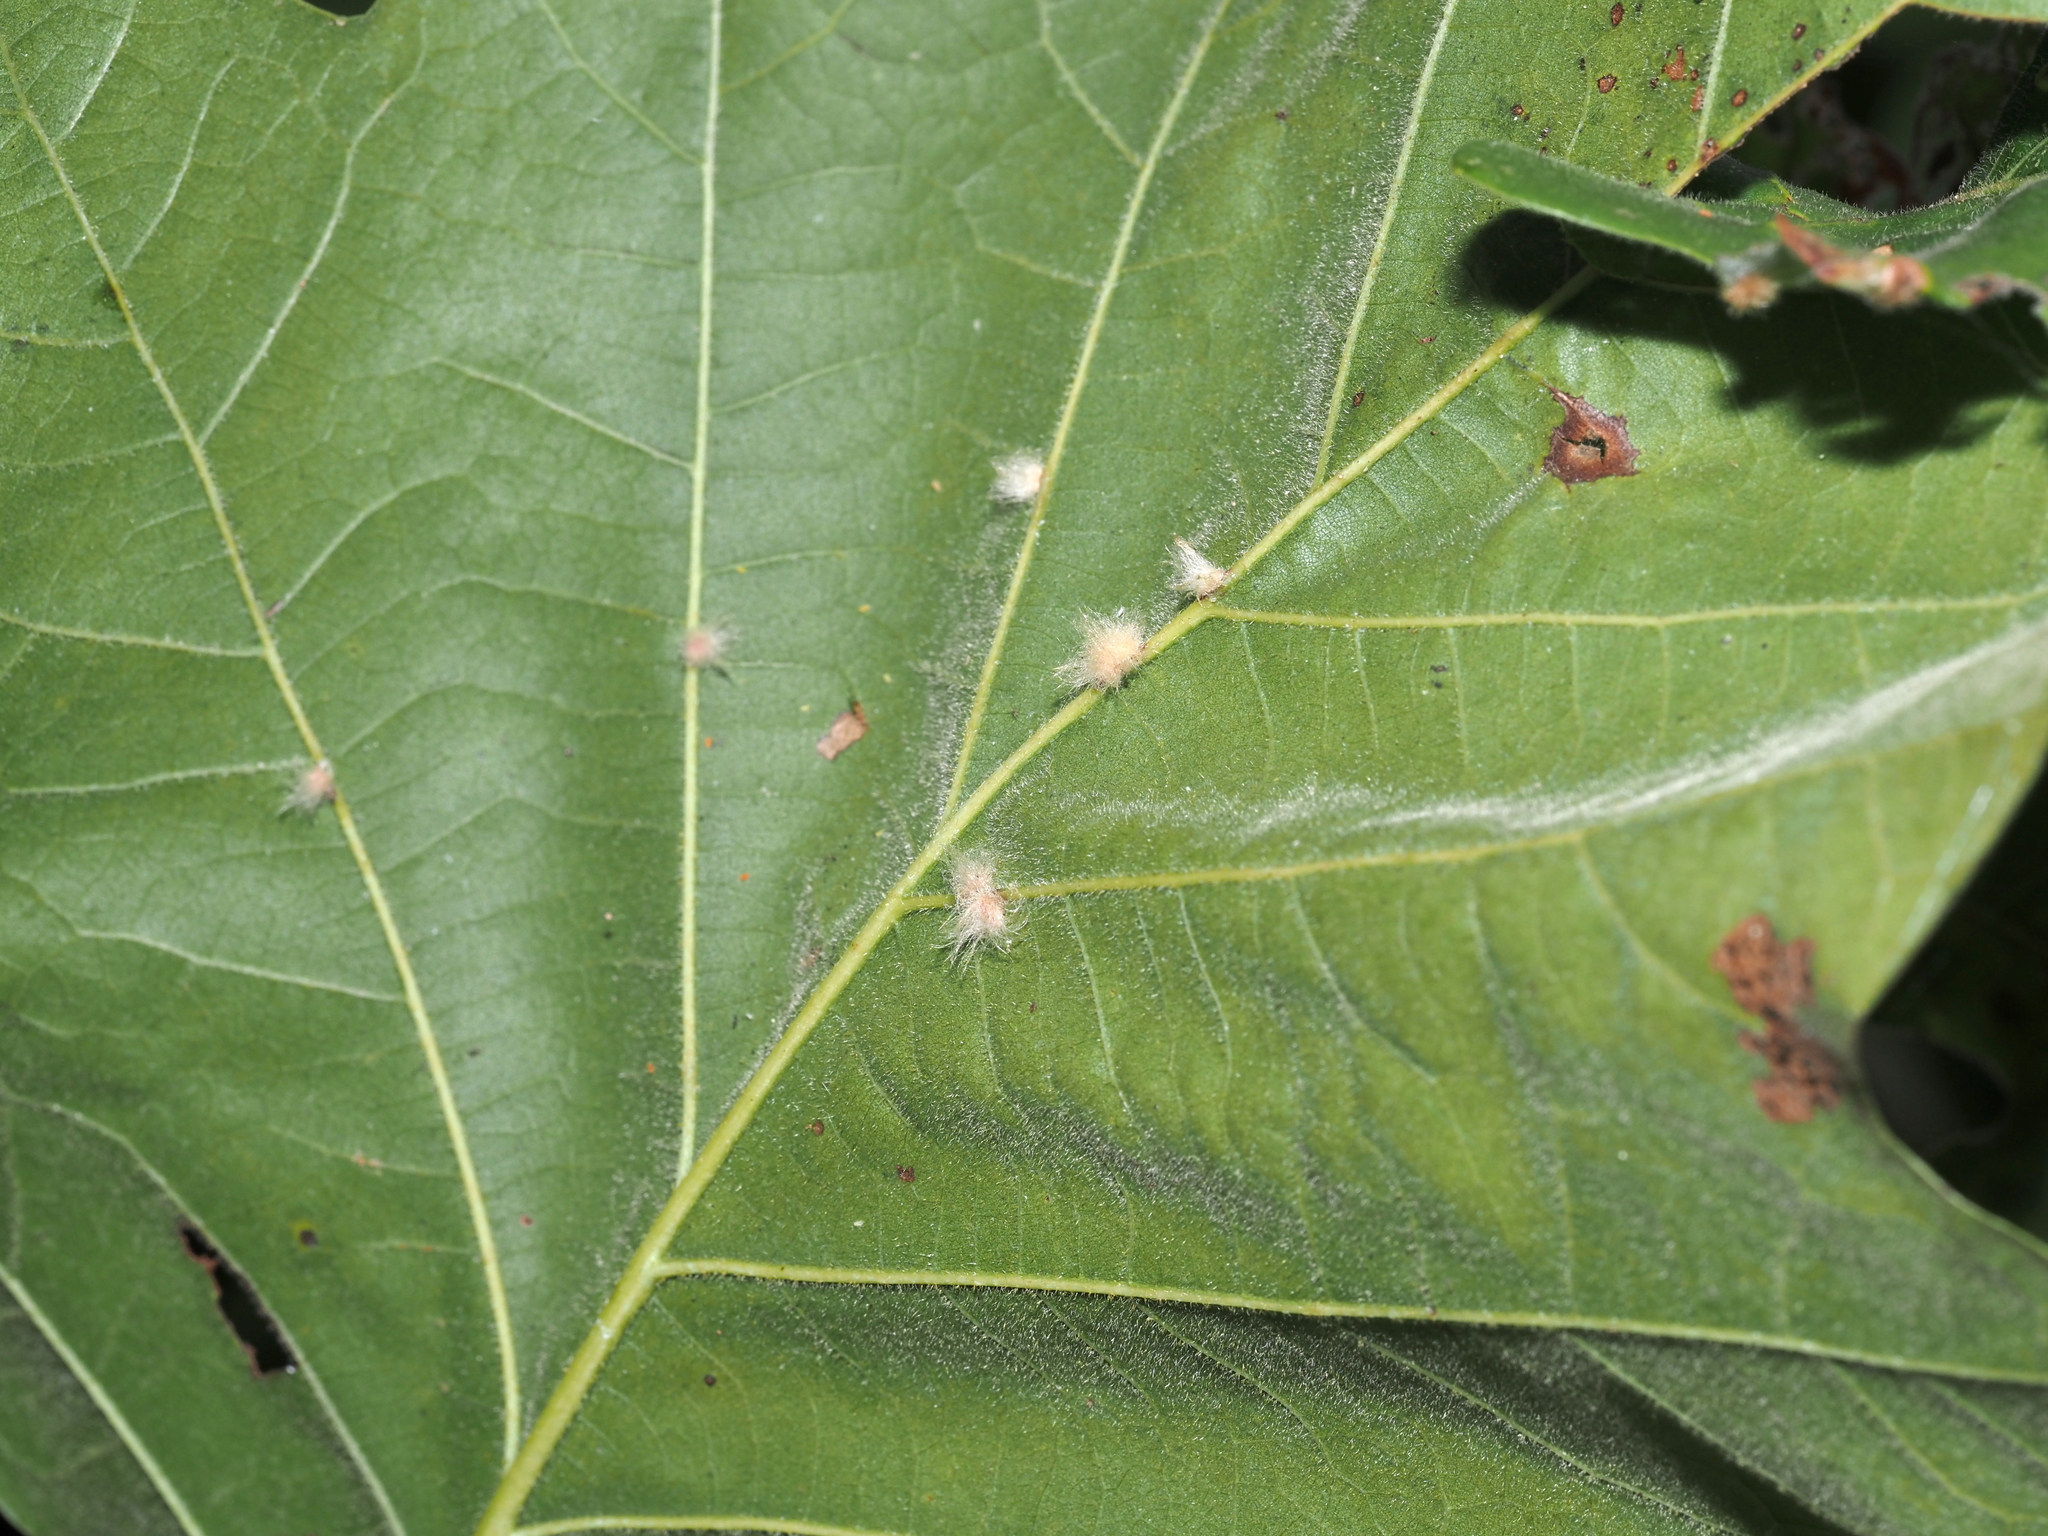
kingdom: Animalia
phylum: Arthropoda
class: Insecta
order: Hymenoptera
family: Cynipidae
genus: Andricus
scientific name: Andricus Druon ignotum
